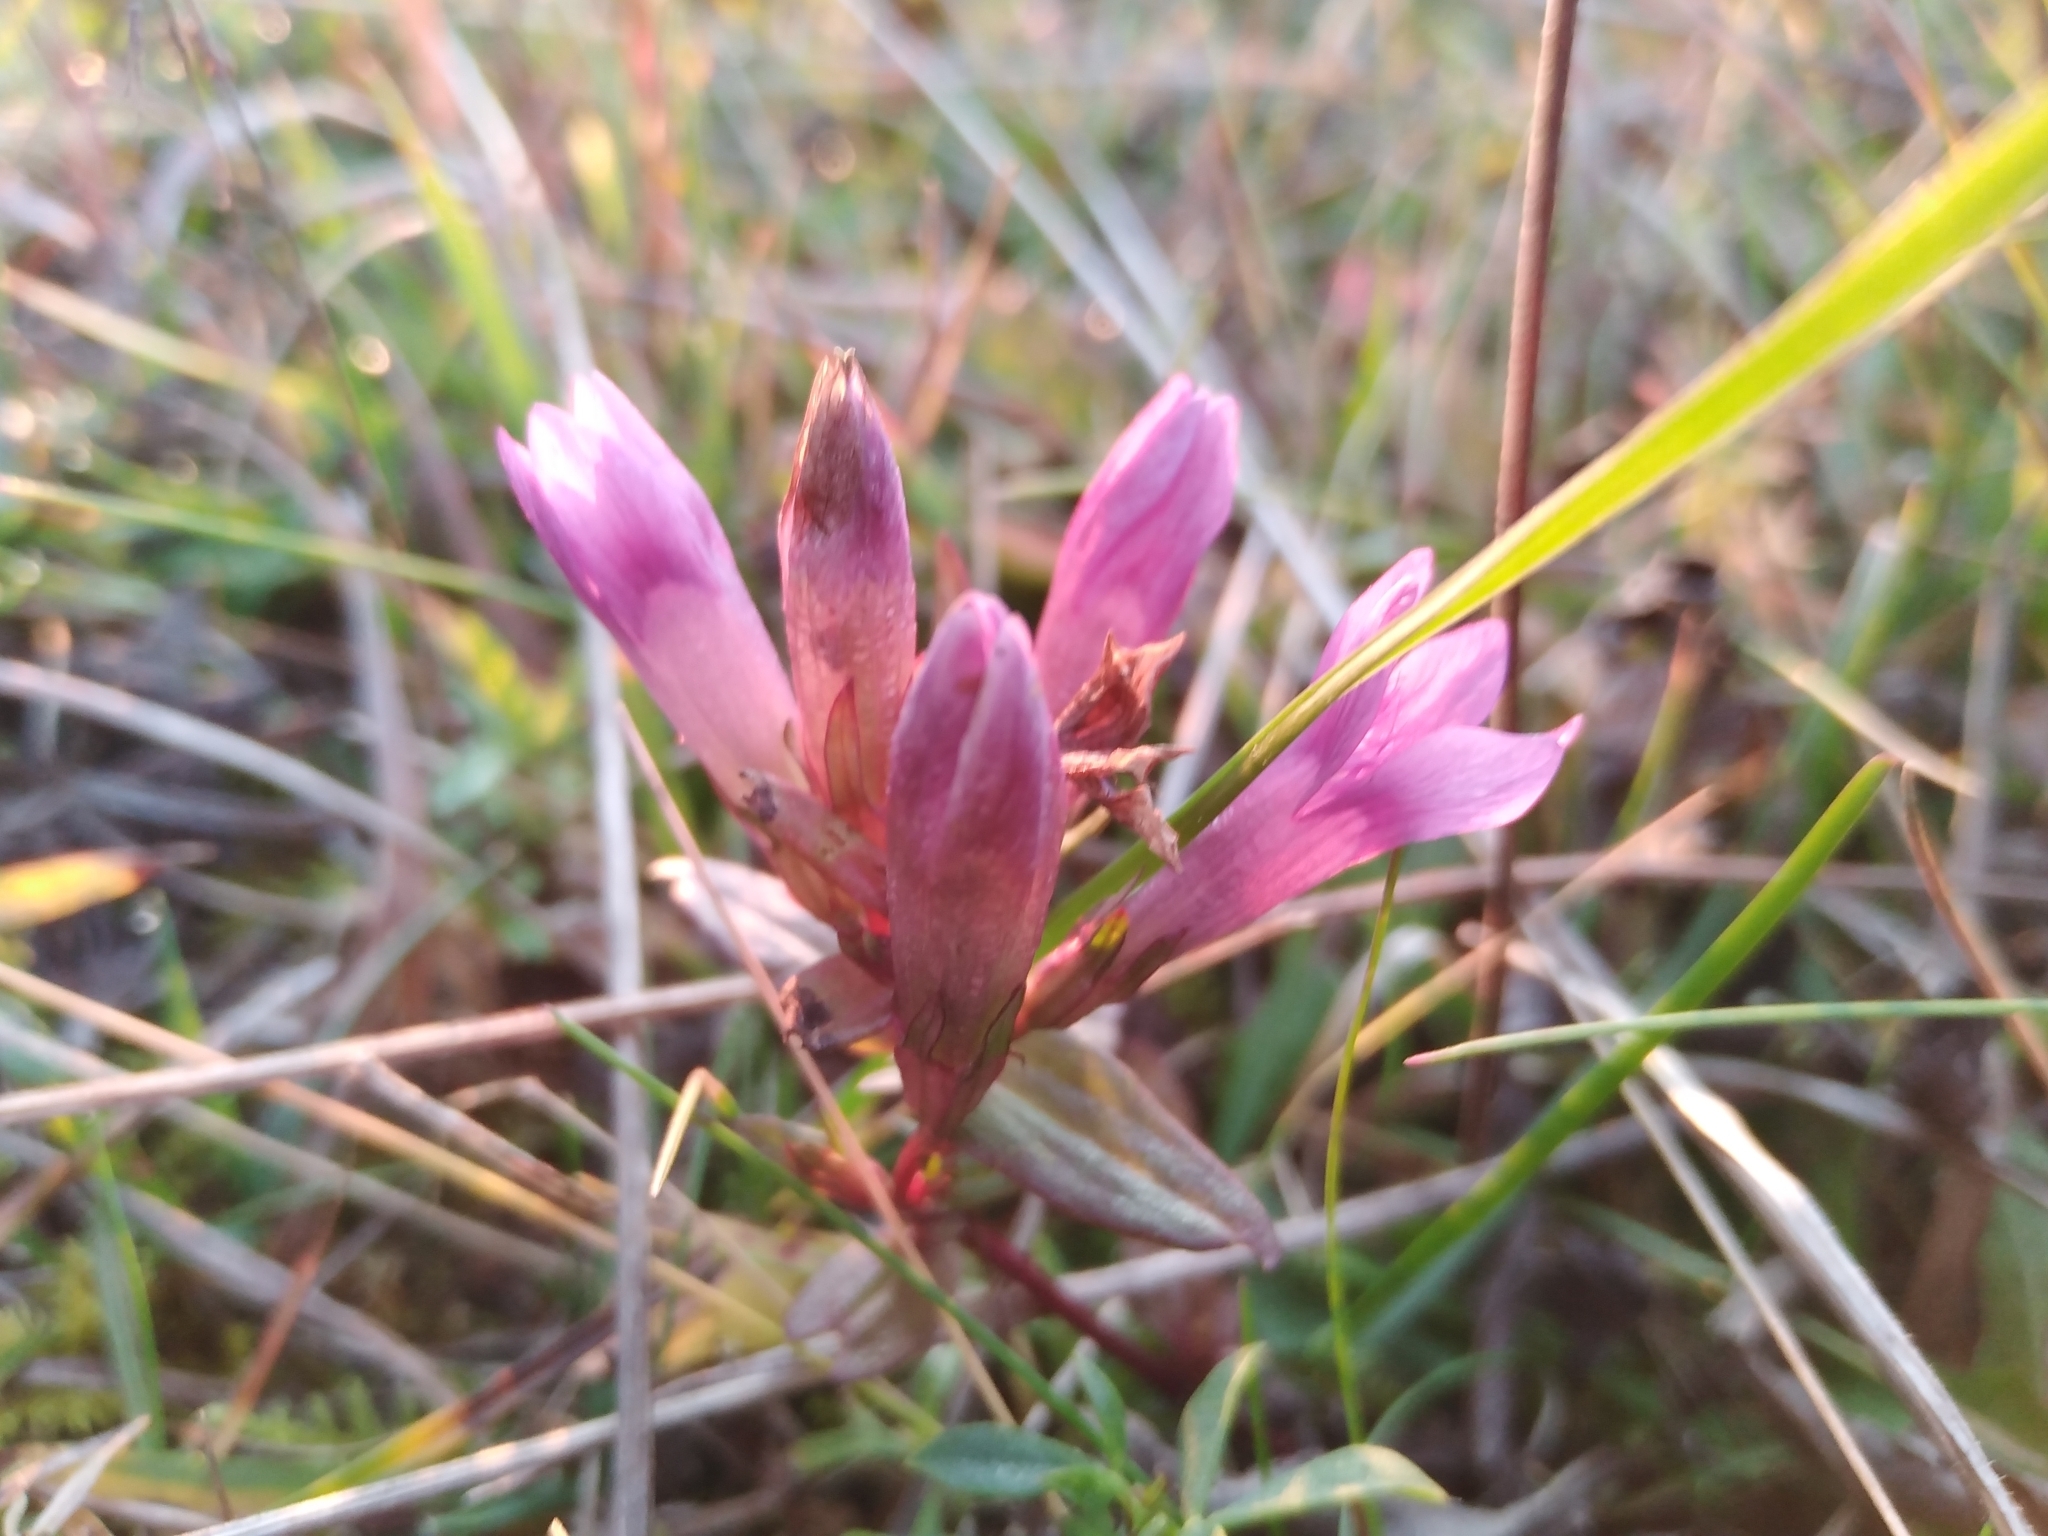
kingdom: Plantae
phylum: Tracheophyta
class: Magnoliopsida
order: Gentianales
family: Gentianaceae
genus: Gentianella
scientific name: Gentianella praecox
